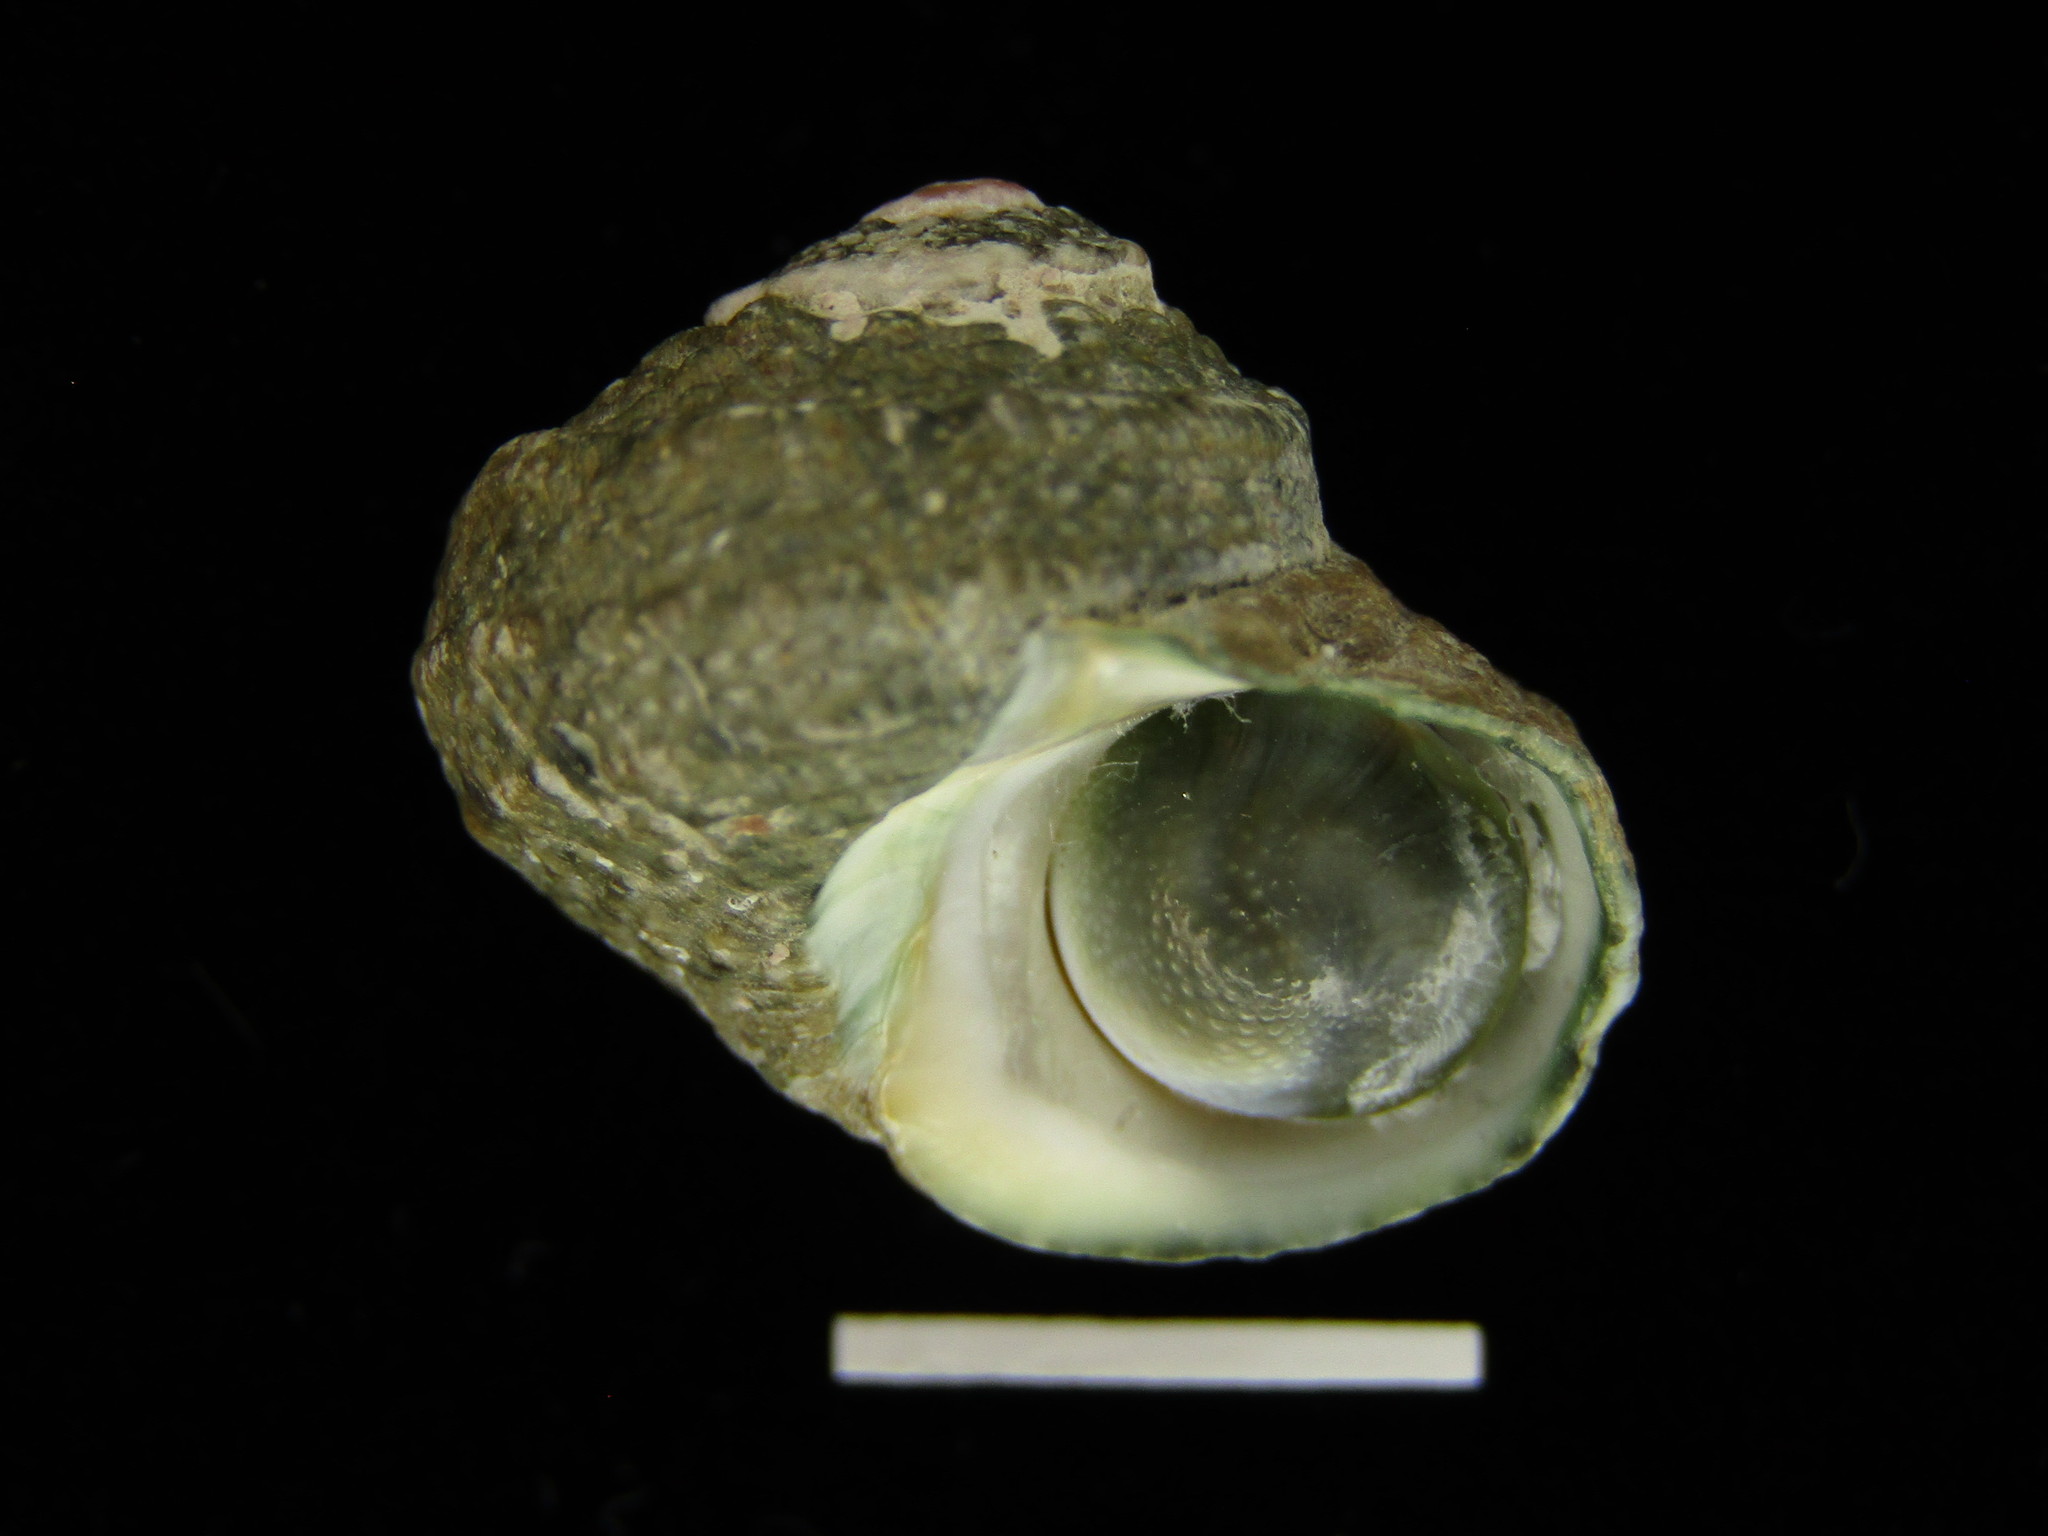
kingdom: Animalia
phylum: Mollusca
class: Gastropoda
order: Trochida
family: Turbinidae
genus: Lunella
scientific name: Lunella correensis
